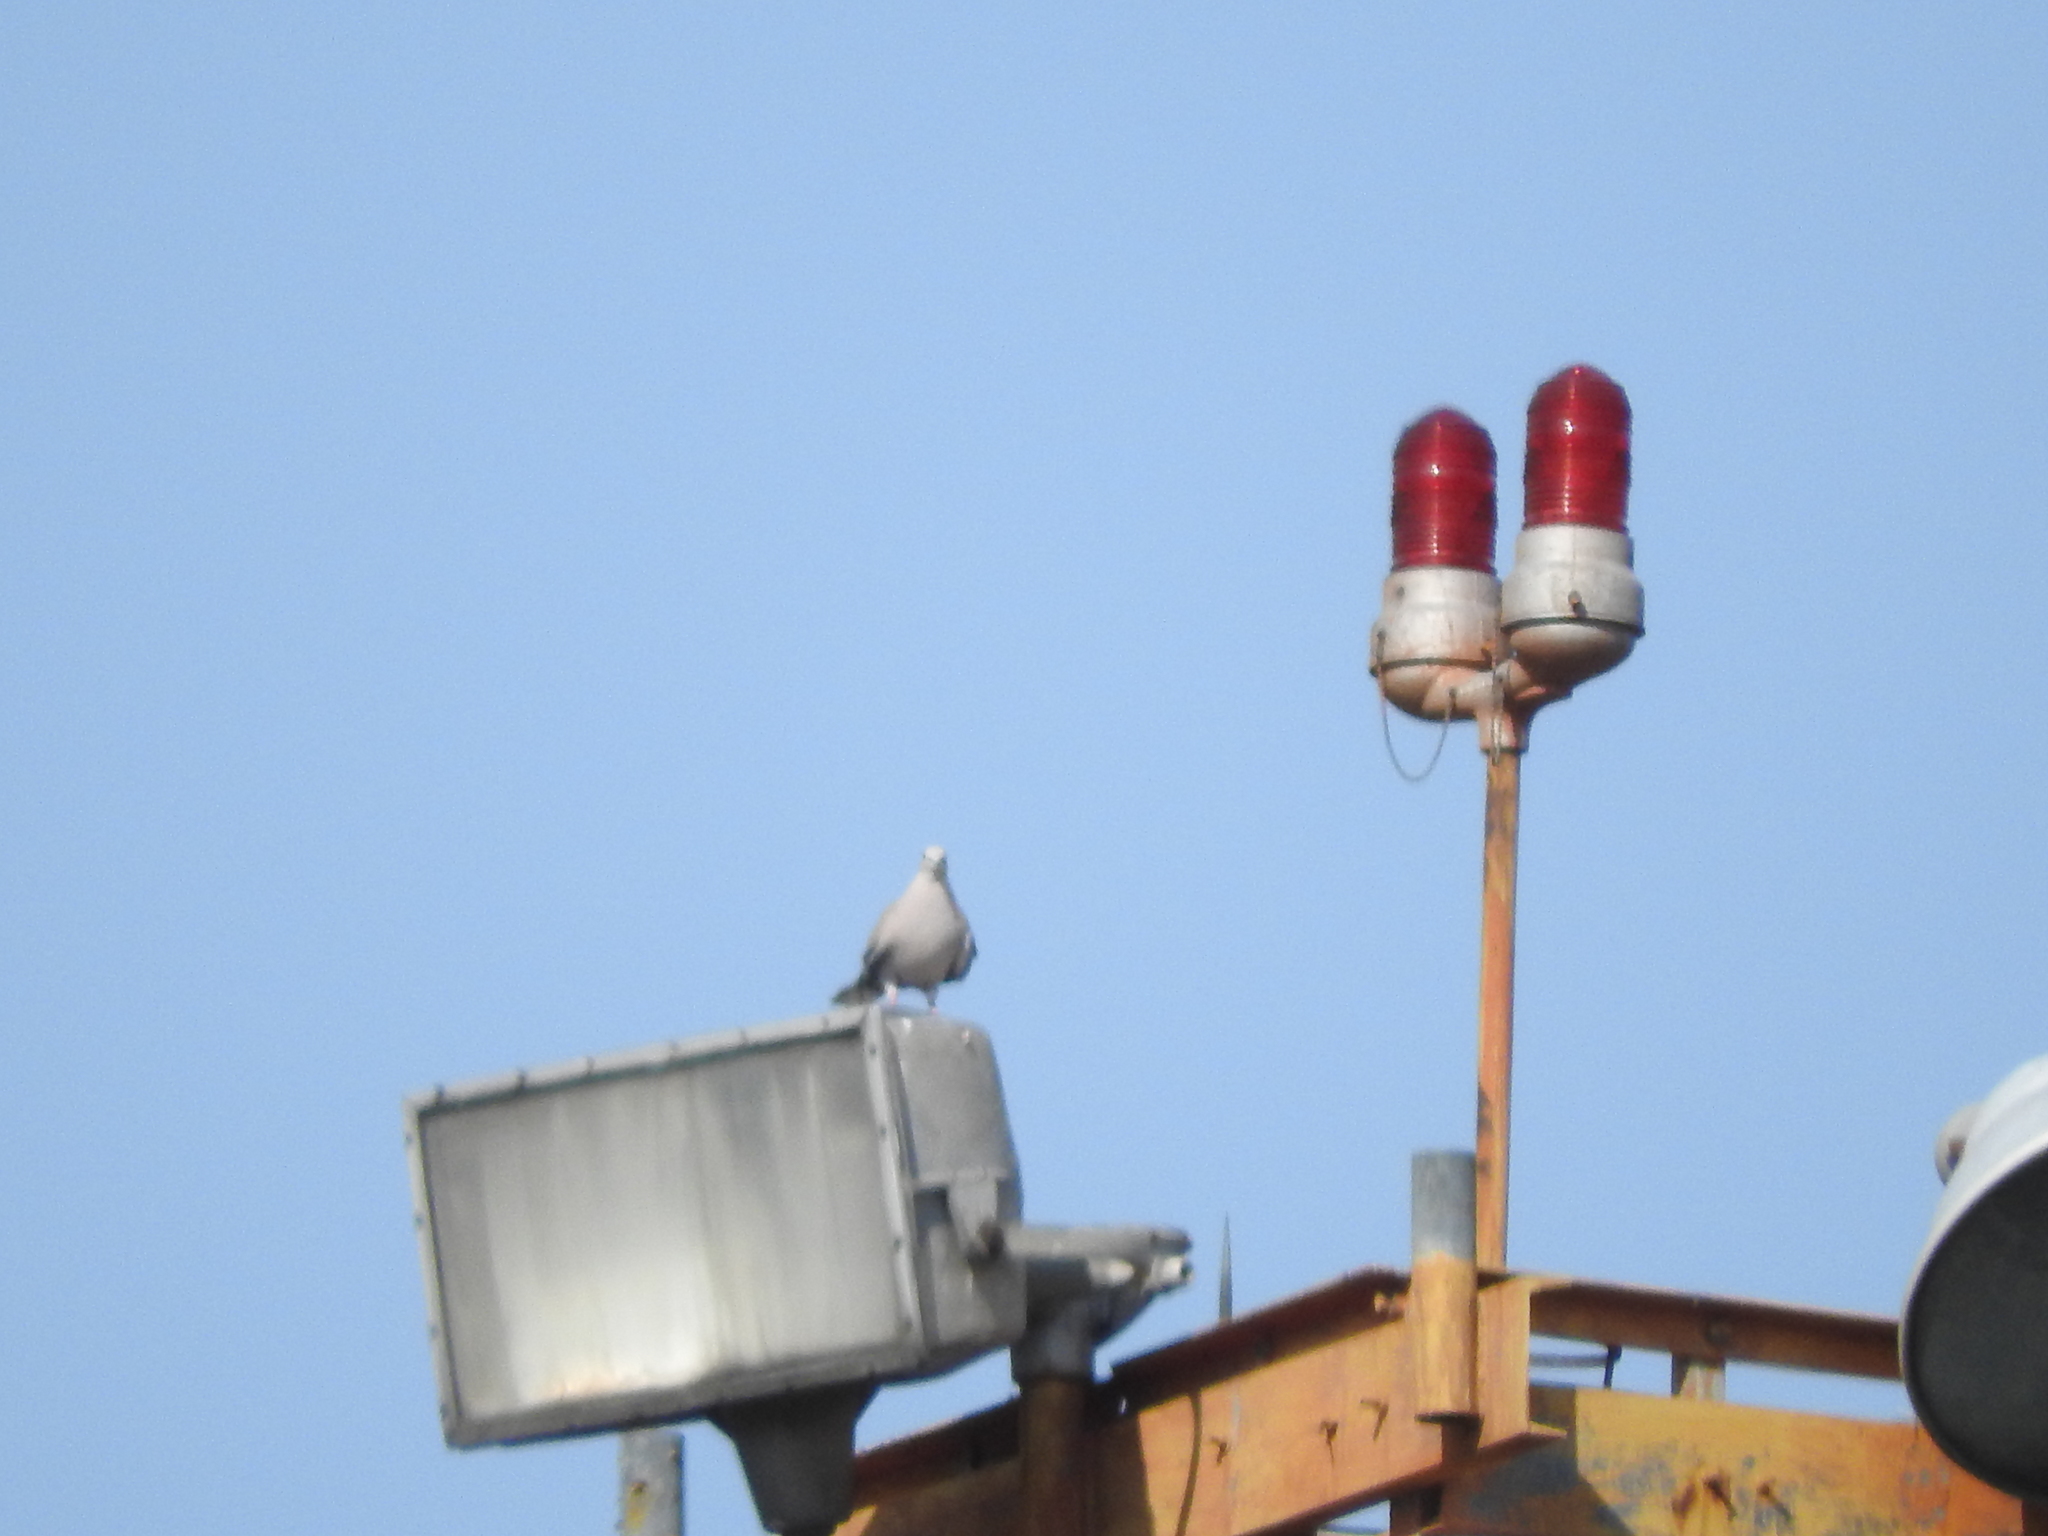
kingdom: Animalia
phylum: Chordata
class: Aves
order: Columbiformes
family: Columbidae
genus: Streptopelia
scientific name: Streptopelia decaocto
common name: Eurasian collared dove
